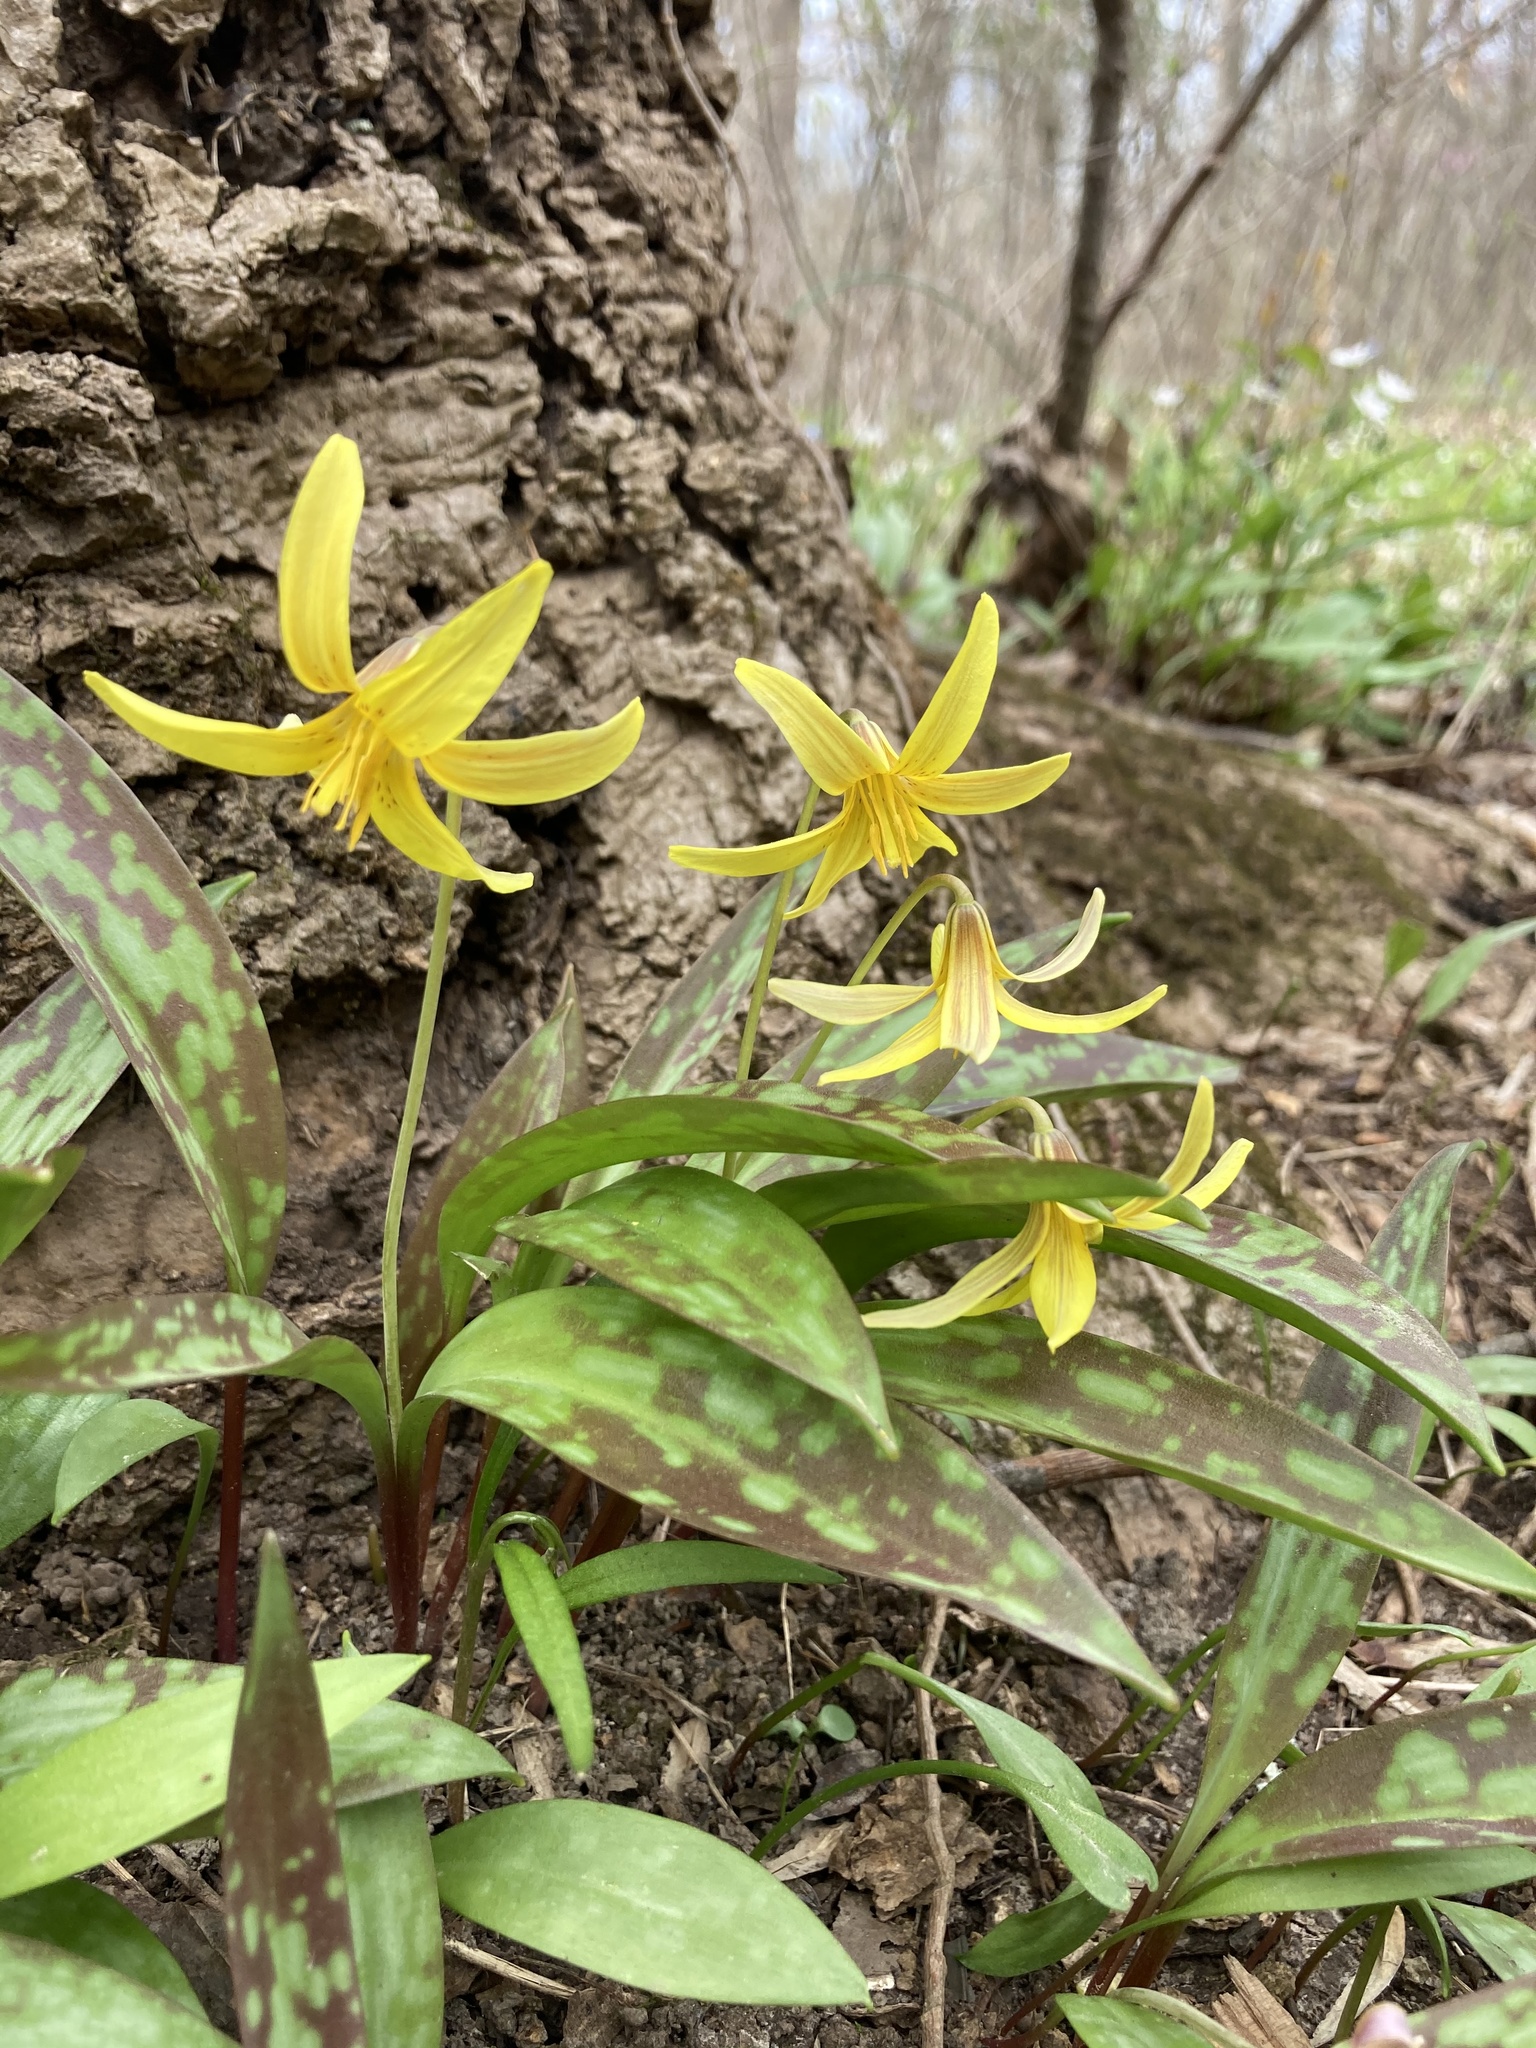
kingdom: Plantae
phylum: Tracheophyta
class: Liliopsida
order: Liliales
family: Liliaceae
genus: Erythronium
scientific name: Erythronium americanum
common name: Yellow adder's-tongue
